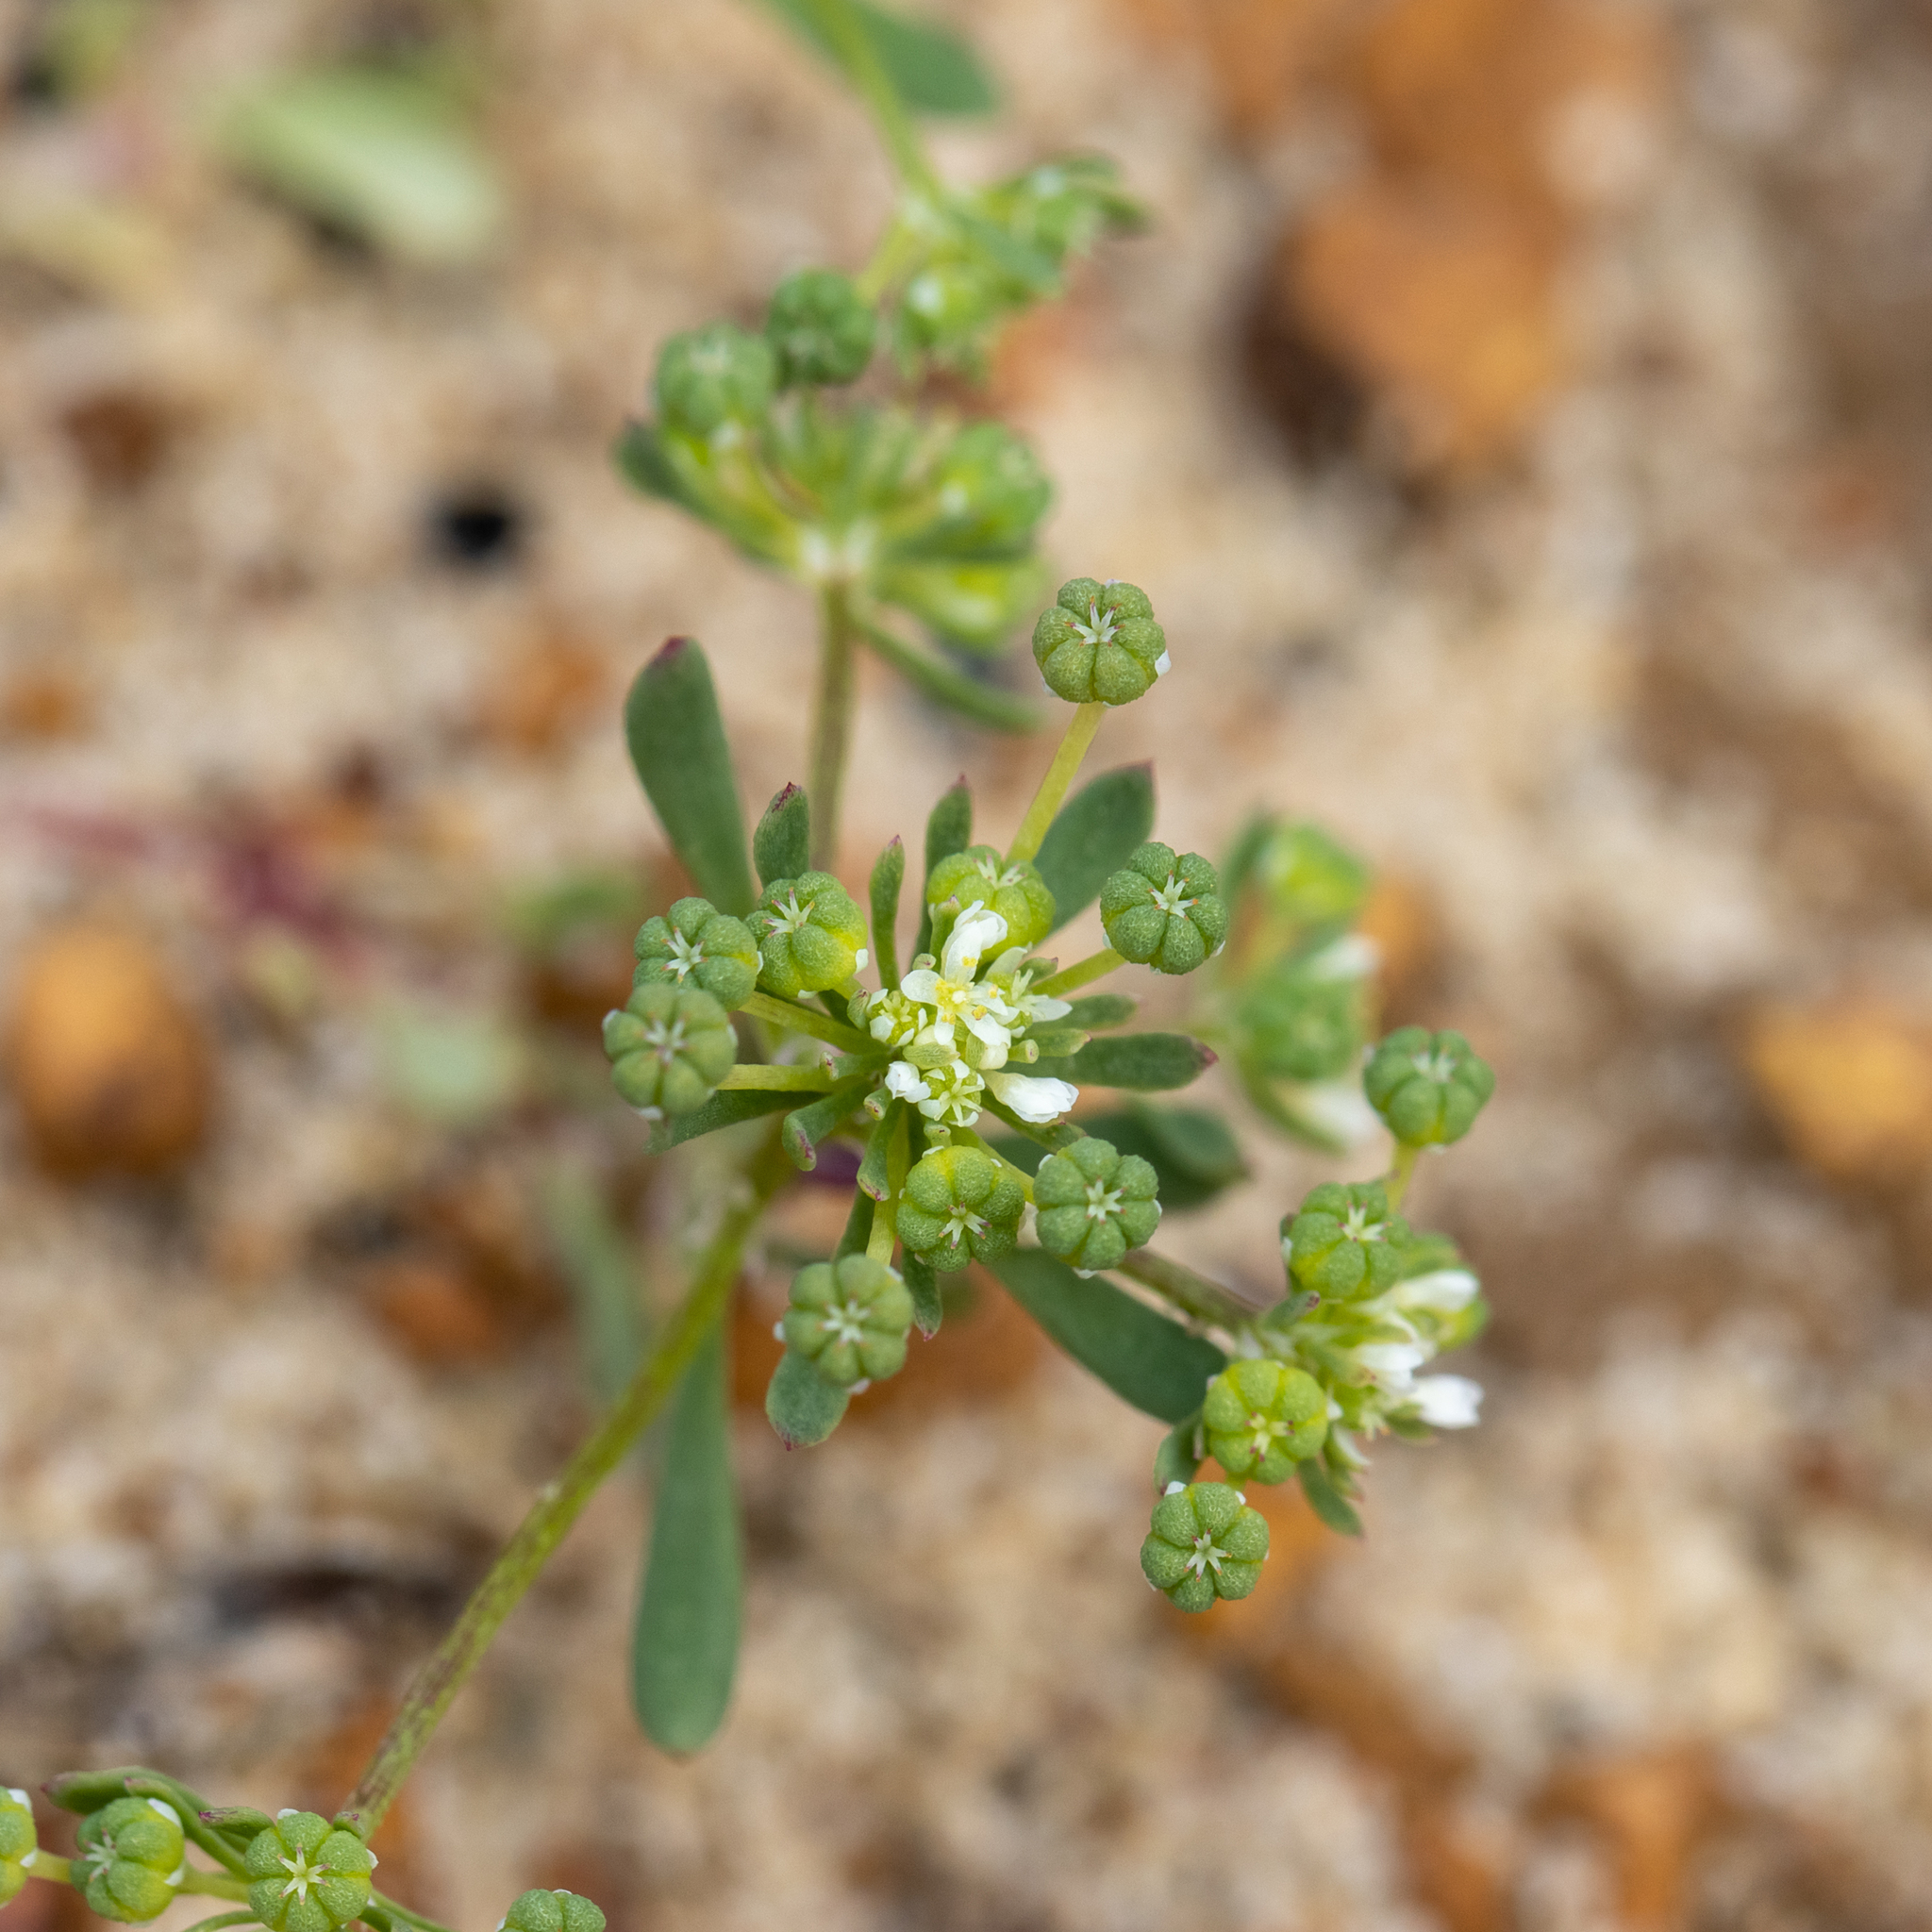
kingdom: Plantae
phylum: Tracheophyta
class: Magnoliopsida
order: Malpighiales
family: Phyllanthaceae
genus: Poranthera
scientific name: Poranthera microphylla
